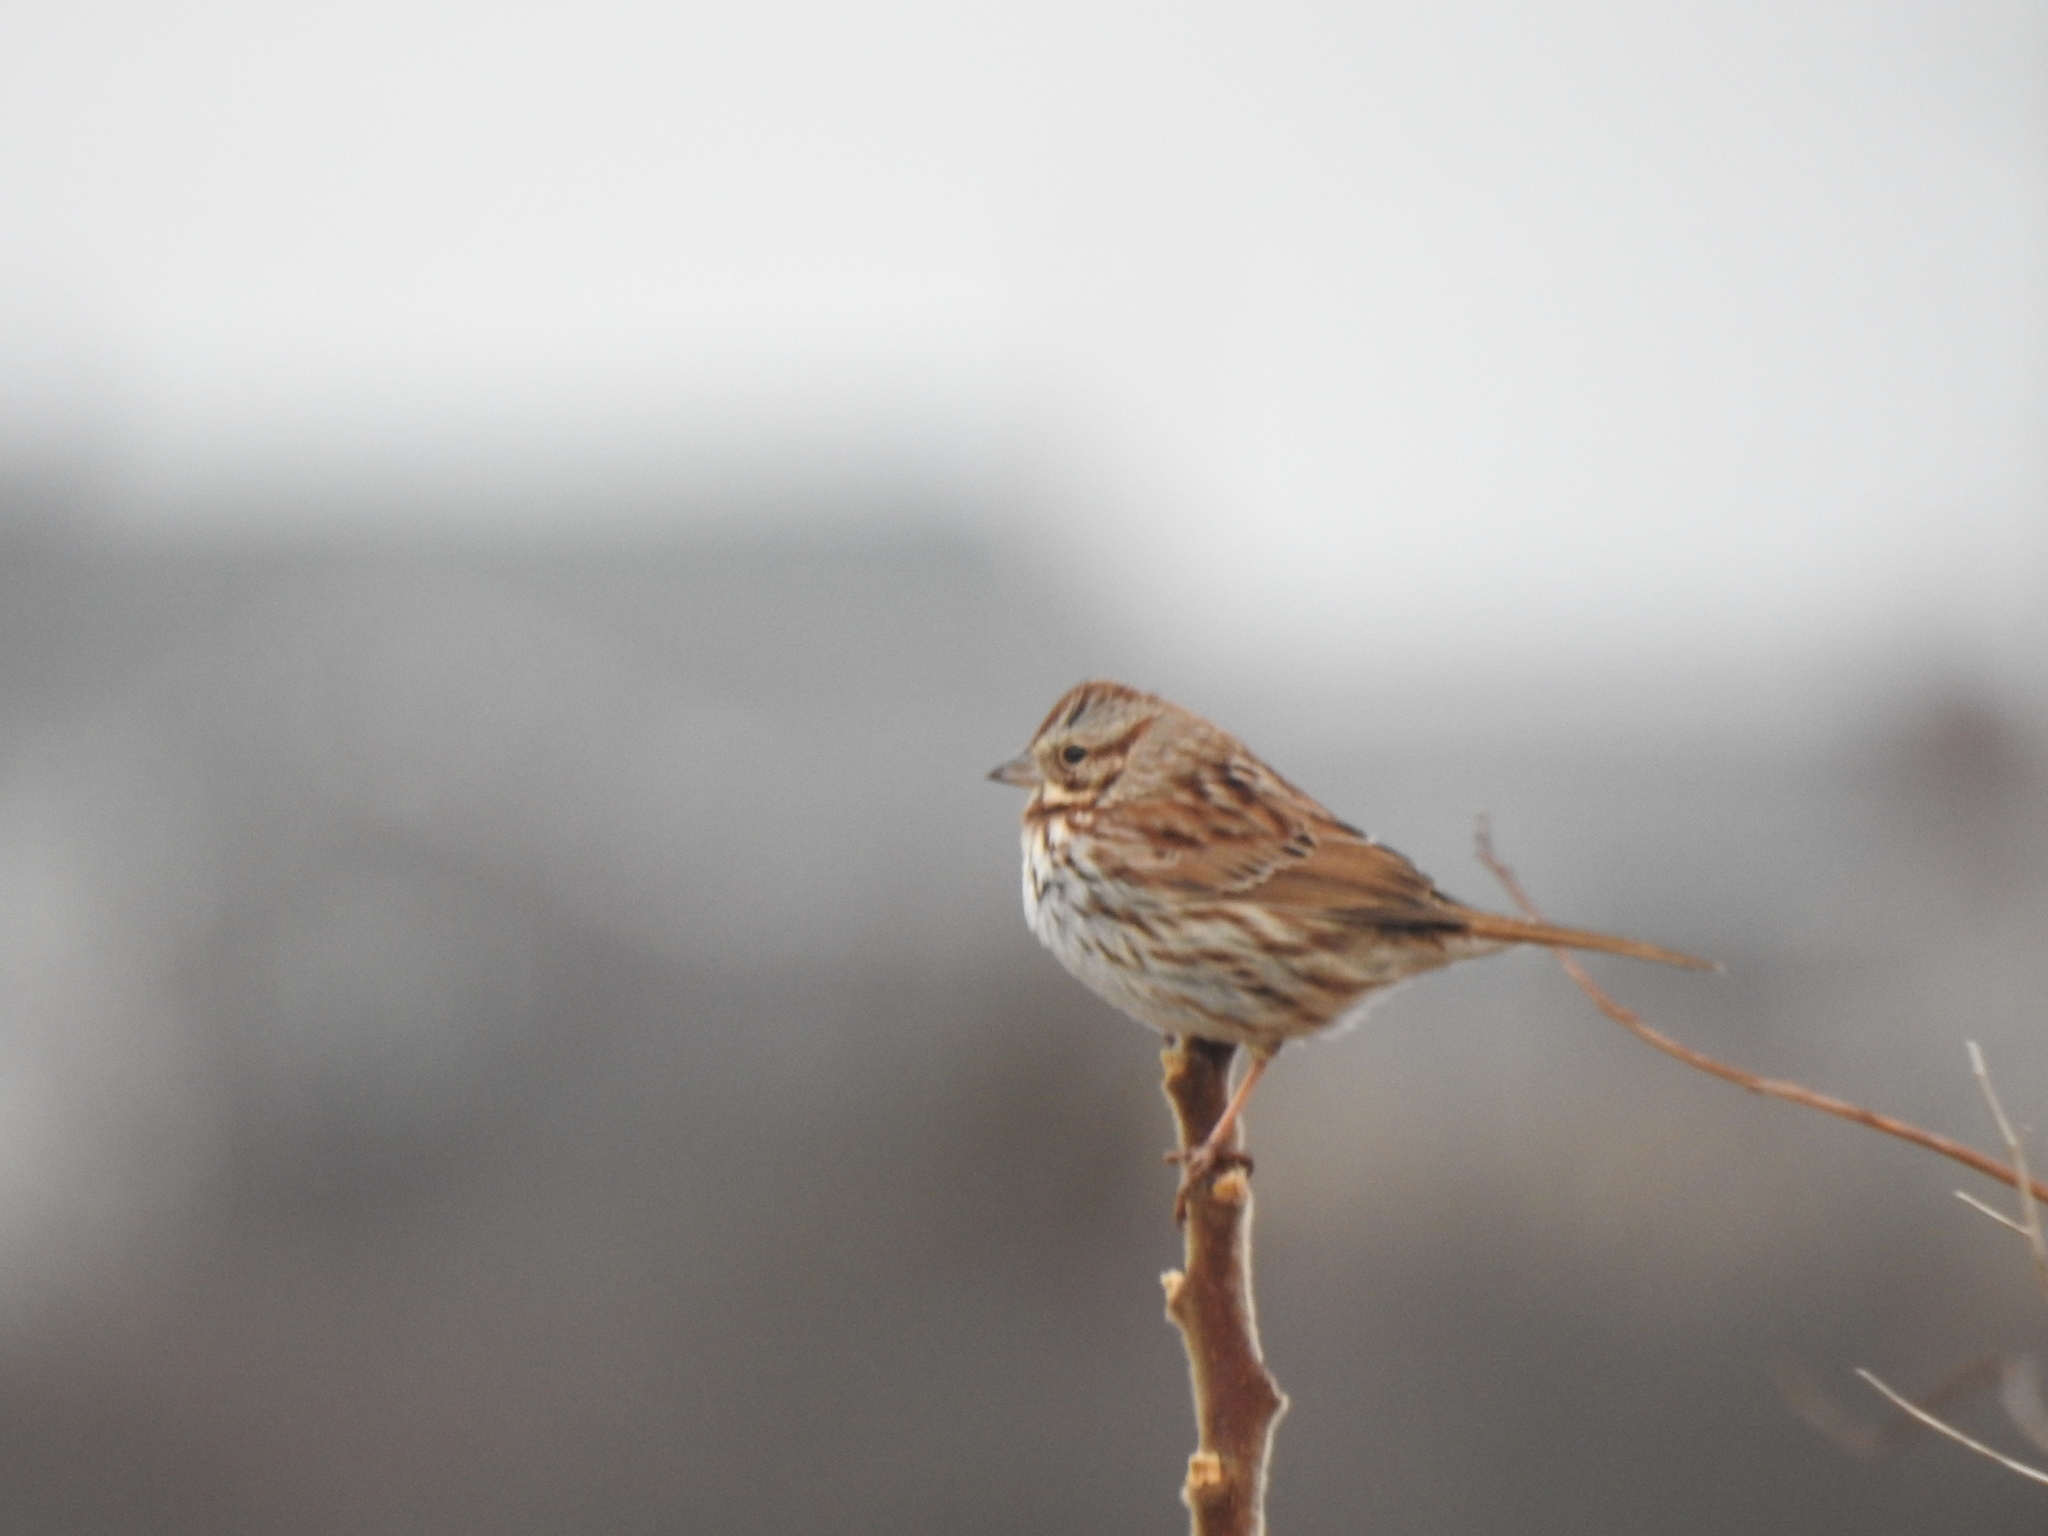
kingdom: Animalia
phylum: Chordata
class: Aves
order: Passeriformes
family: Passerellidae
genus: Melospiza
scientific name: Melospiza melodia
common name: Song sparrow
